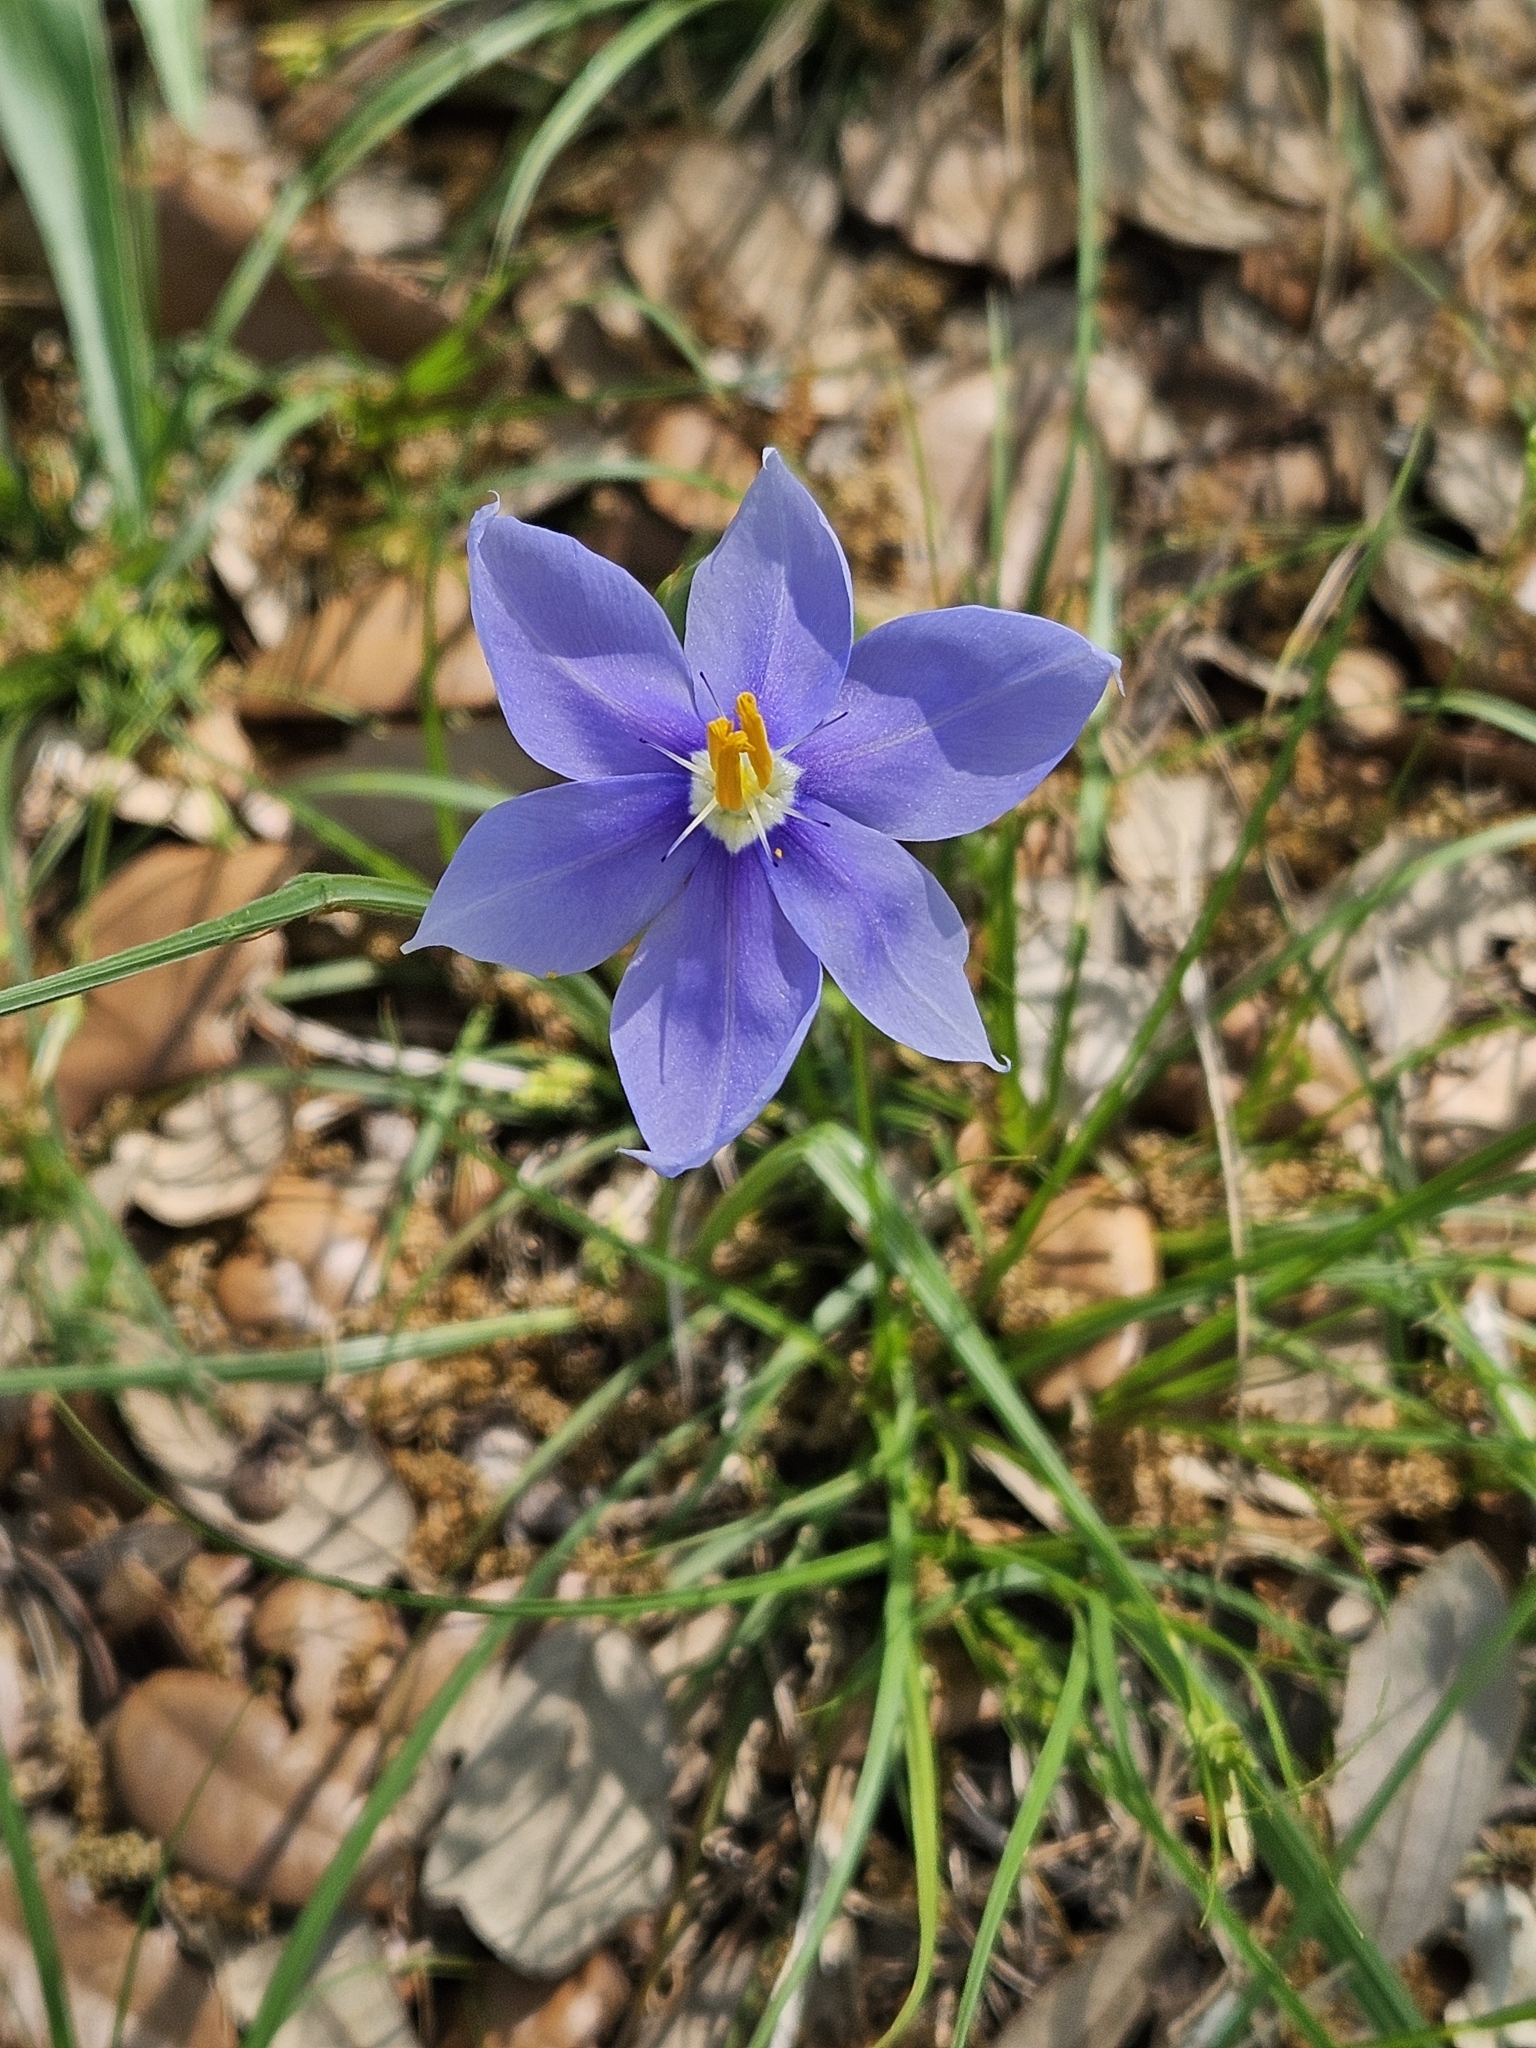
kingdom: Plantae
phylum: Tracheophyta
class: Liliopsida
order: Asparagales
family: Iridaceae
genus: Nemastylis
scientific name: Nemastylis geminiflora
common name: Prairie celestial
